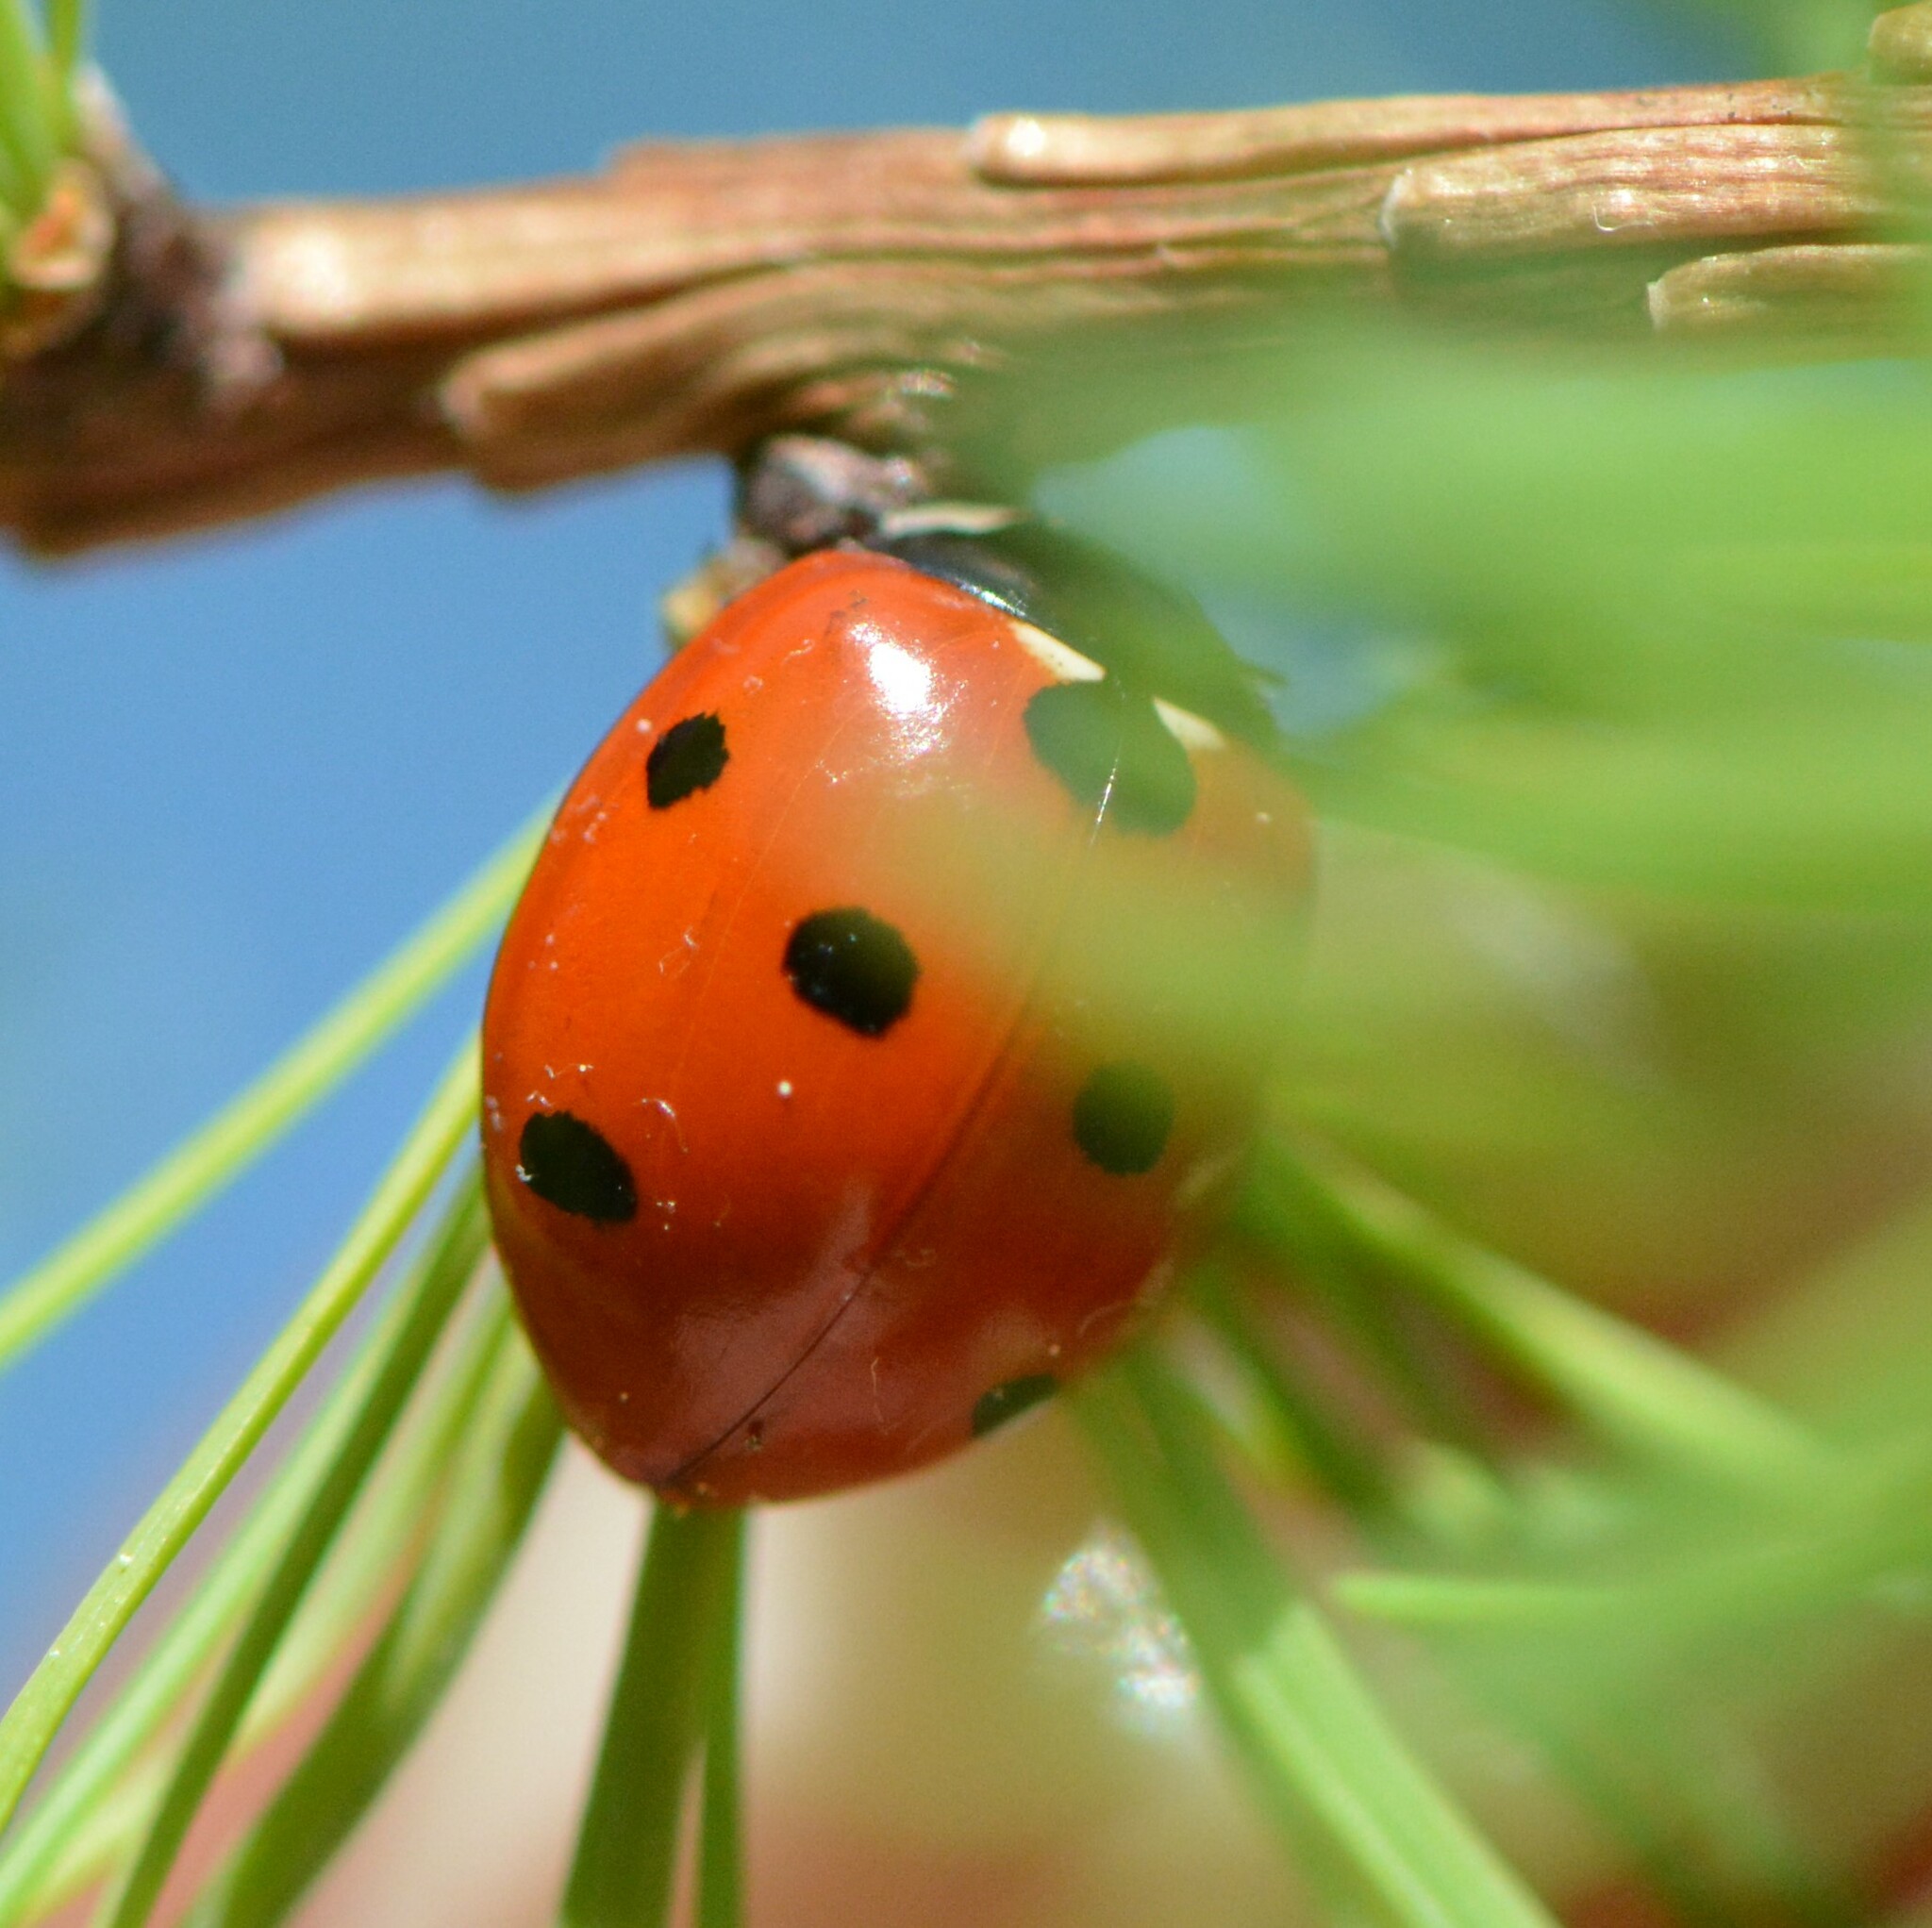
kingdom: Animalia
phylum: Arthropoda
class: Insecta
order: Coleoptera
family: Coccinellidae
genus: Coccinella
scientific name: Coccinella septempunctata
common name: Sevenspotted lady beetle
